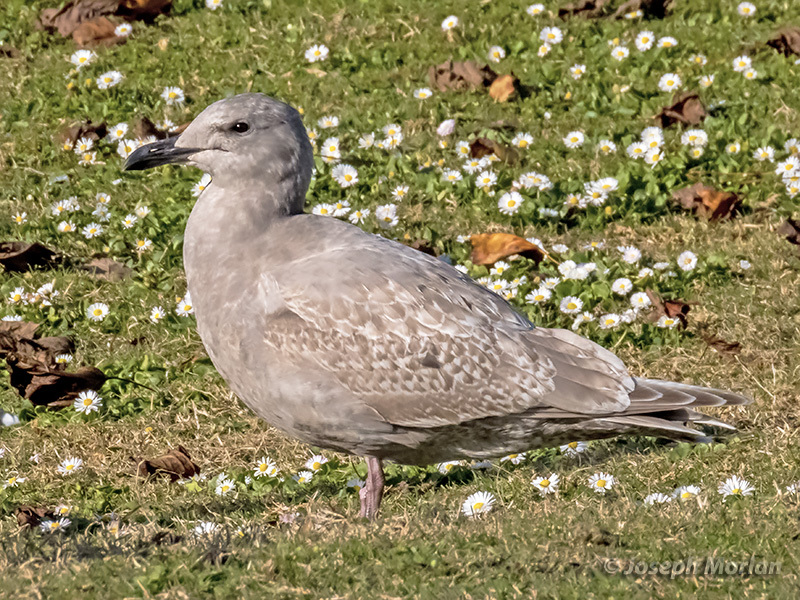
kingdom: Animalia
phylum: Chordata
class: Aves
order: Charadriiformes
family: Laridae
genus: Larus
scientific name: Larus glaucescens
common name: Glaucous-winged gull
